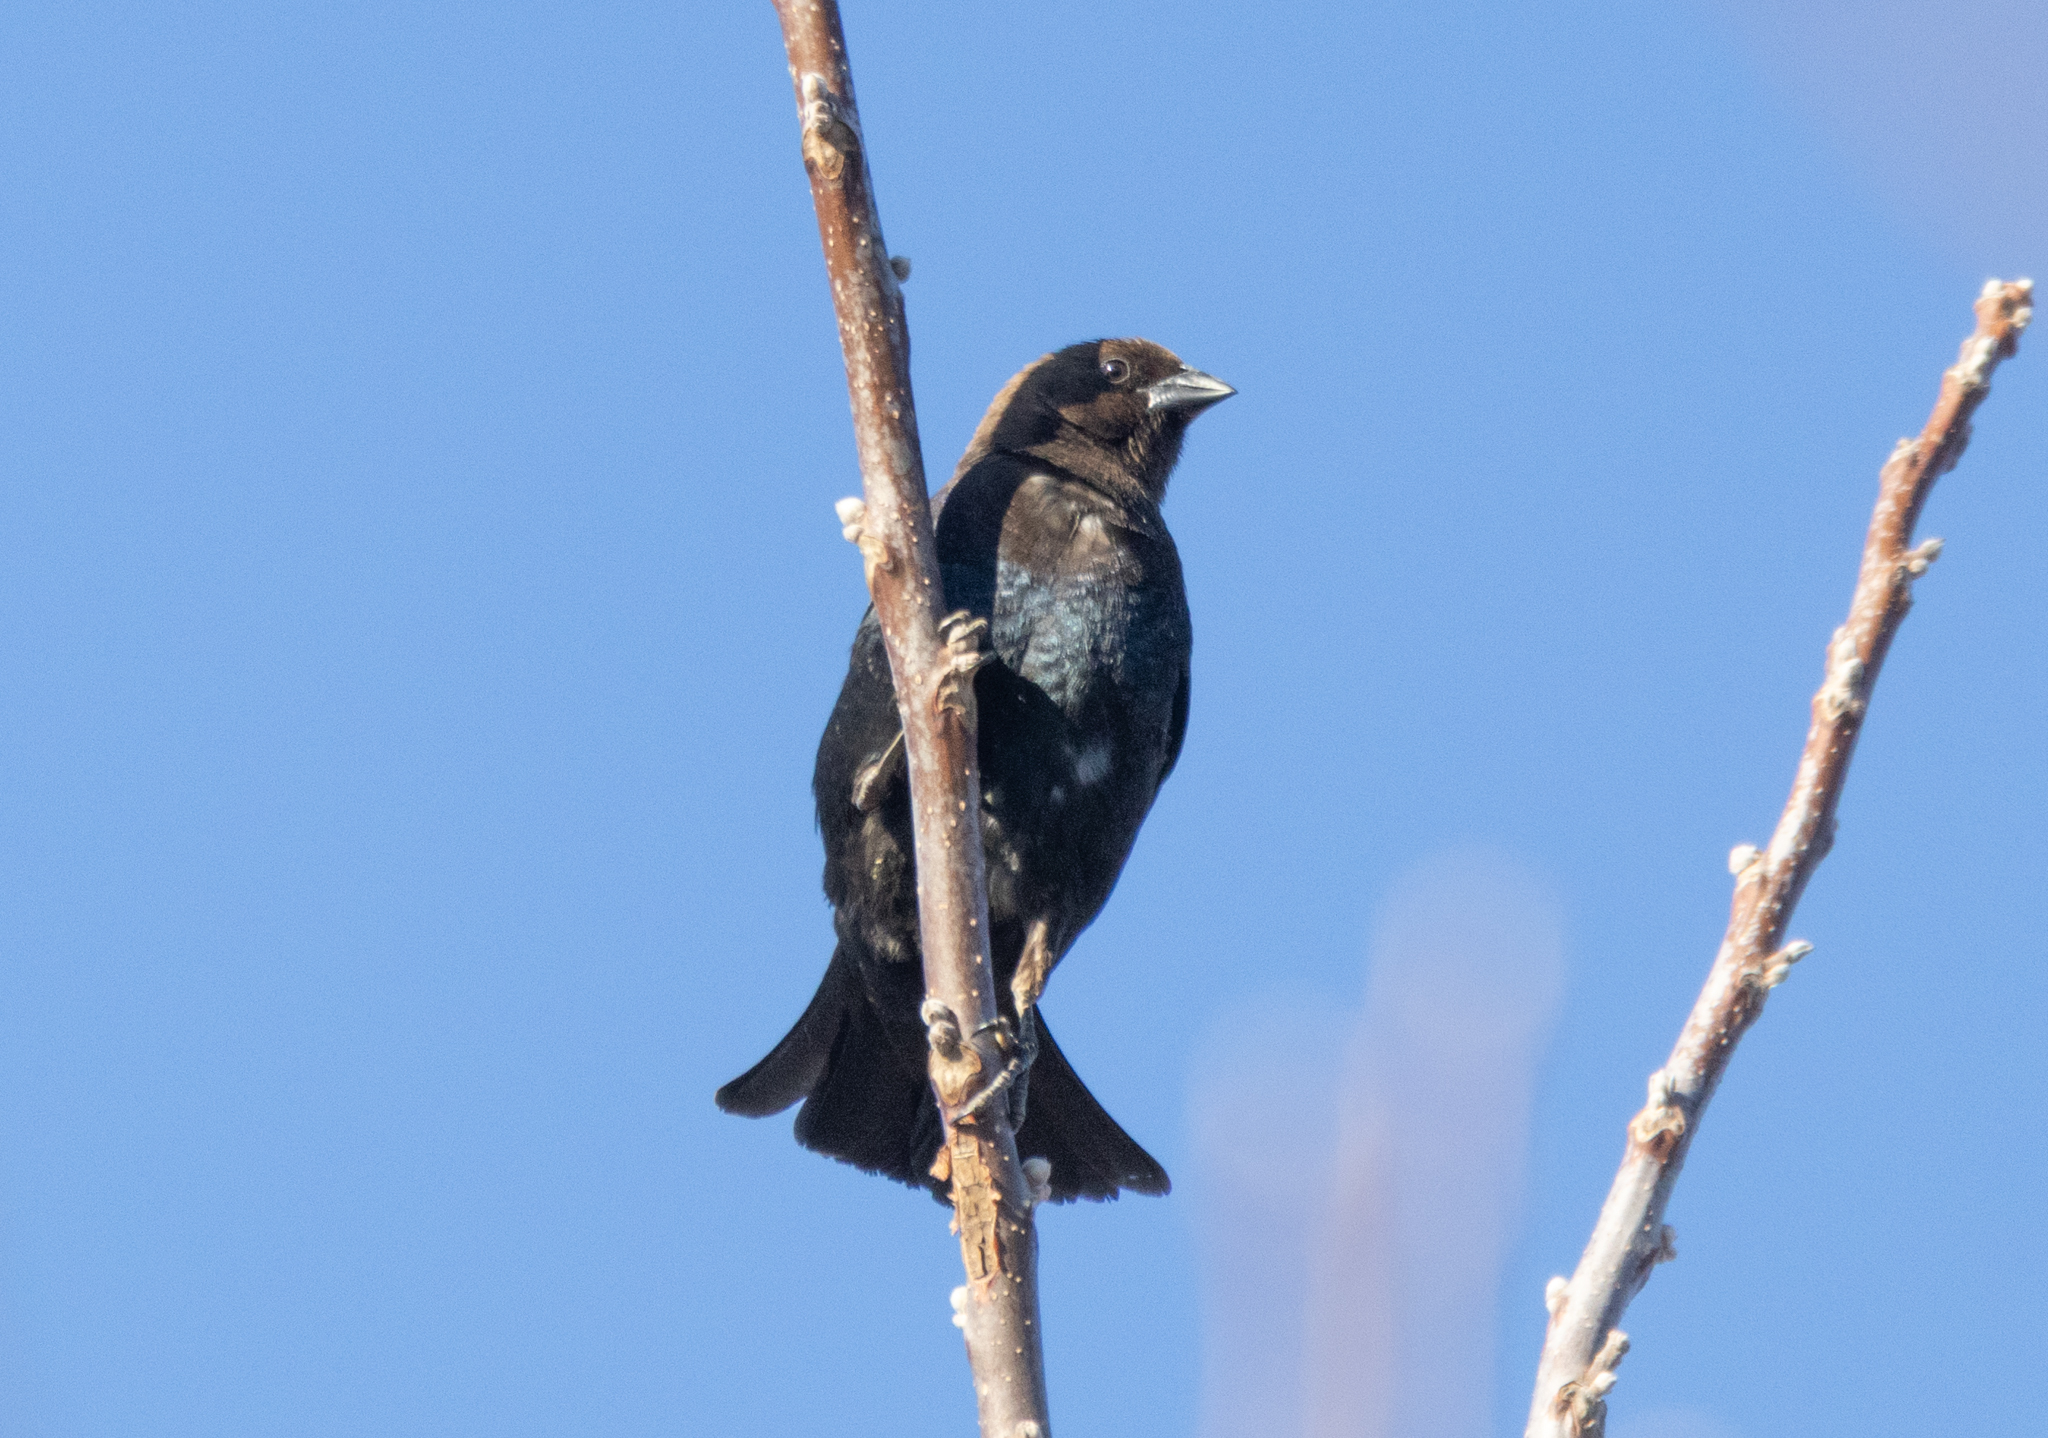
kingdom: Animalia
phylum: Chordata
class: Aves
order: Passeriformes
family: Icteridae
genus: Molothrus
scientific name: Molothrus ater
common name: Brown-headed cowbird
